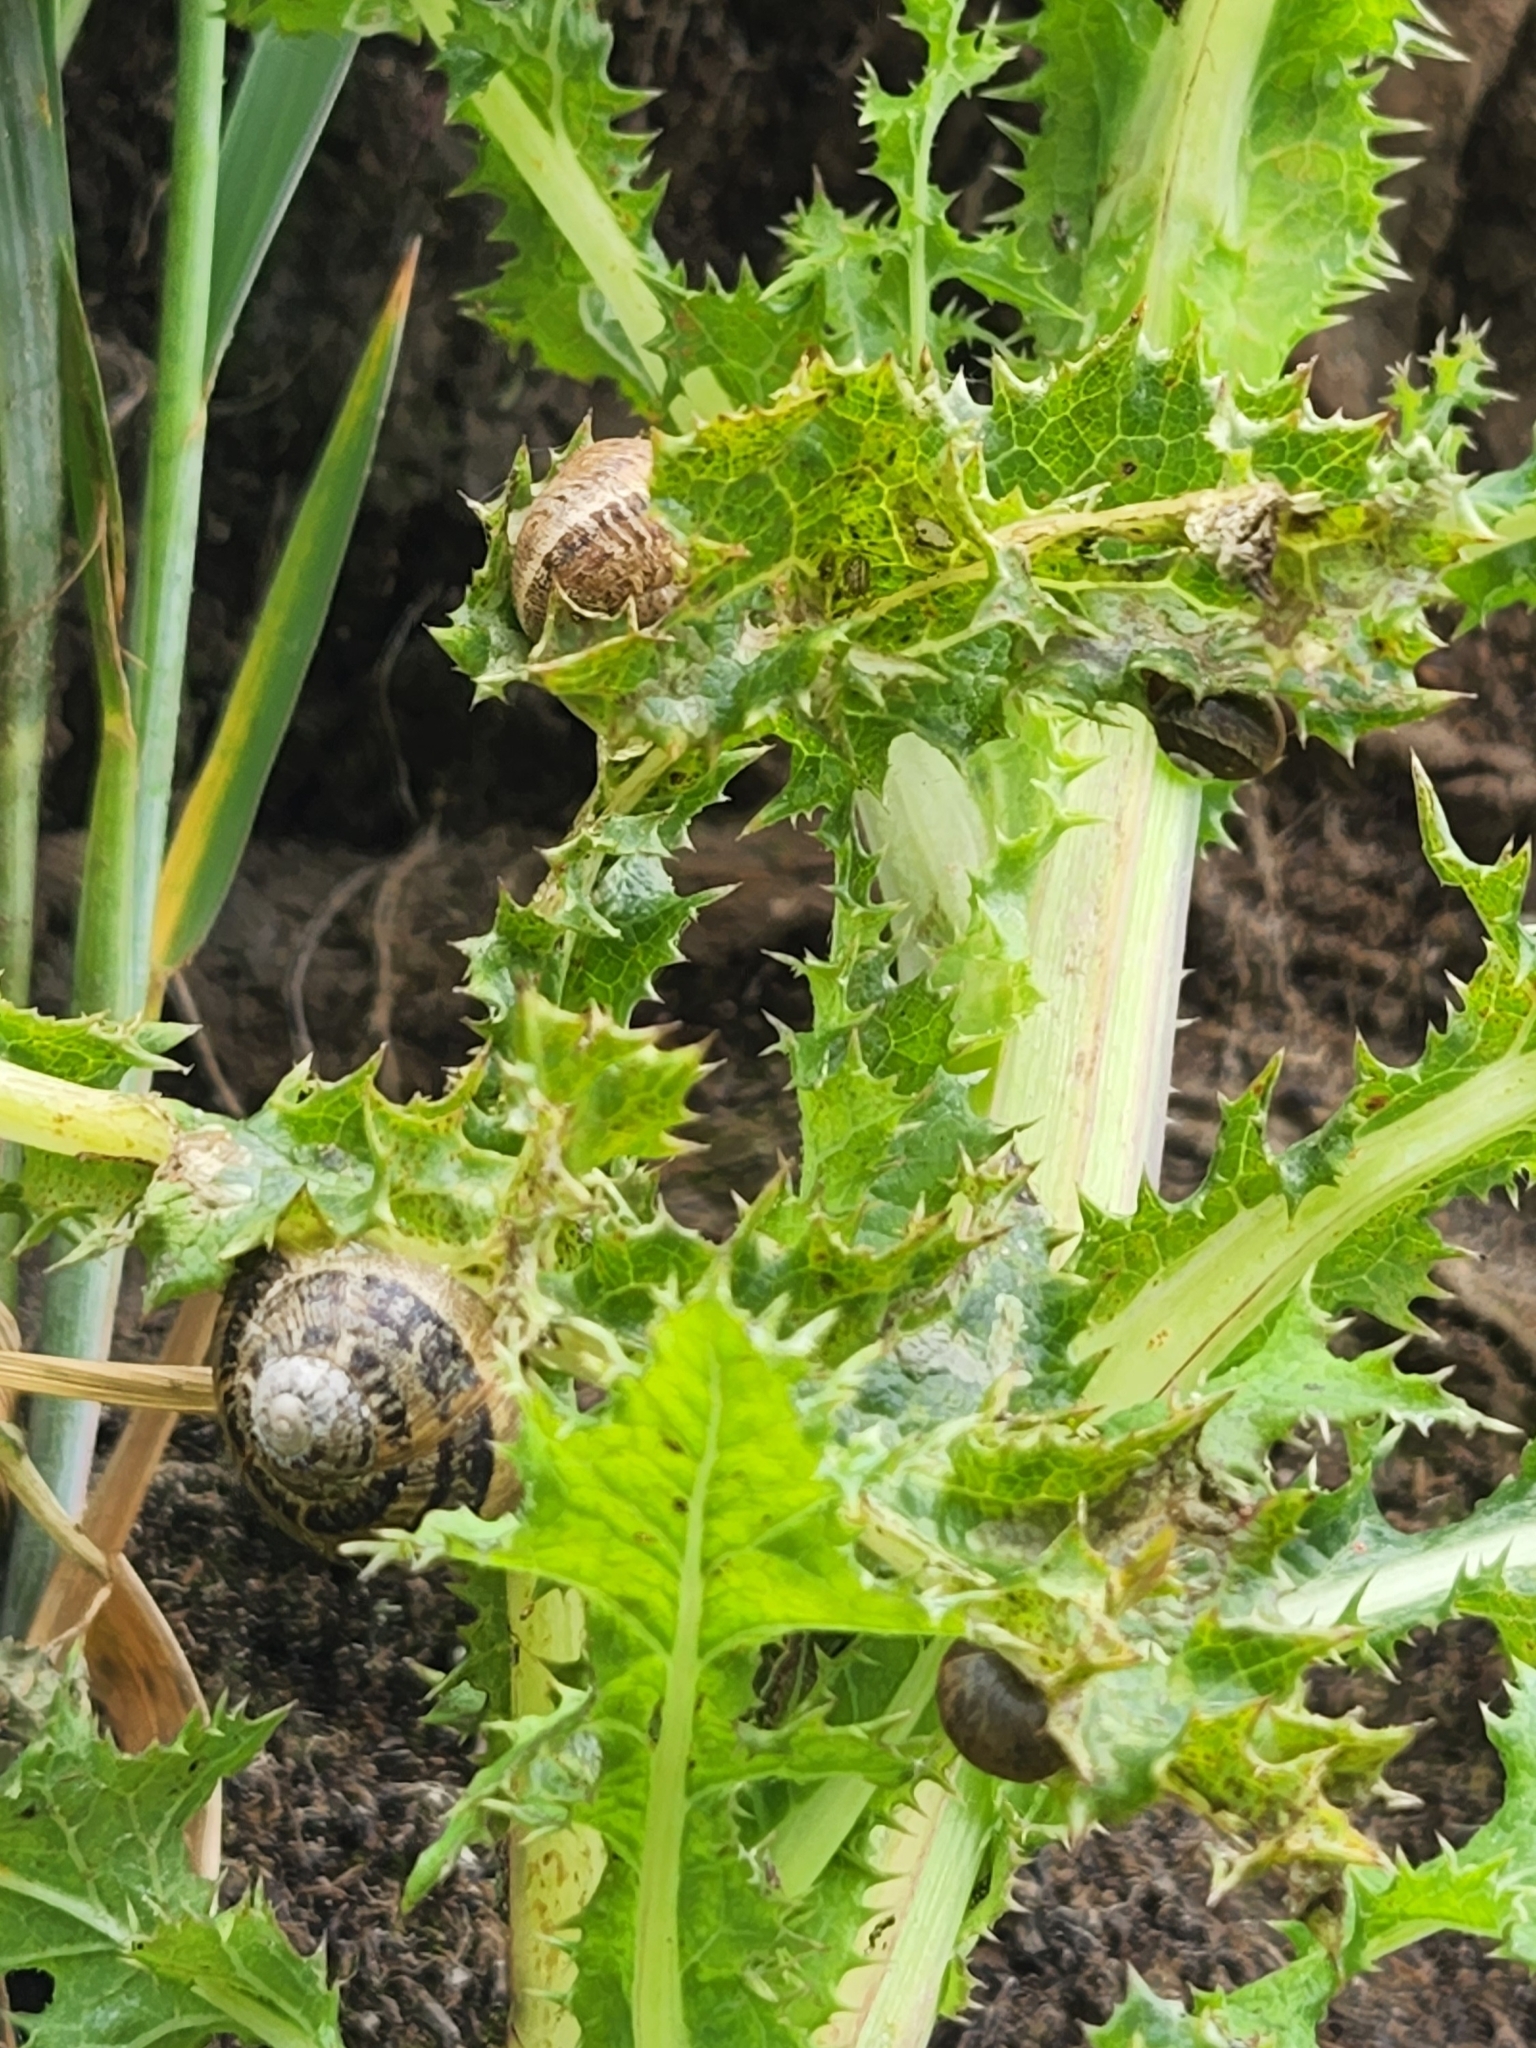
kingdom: Animalia
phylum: Mollusca
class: Gastropoda
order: Stylommatophora
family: Helicidae
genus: Cornu
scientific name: Cornu aspersum
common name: Brown garden snail
